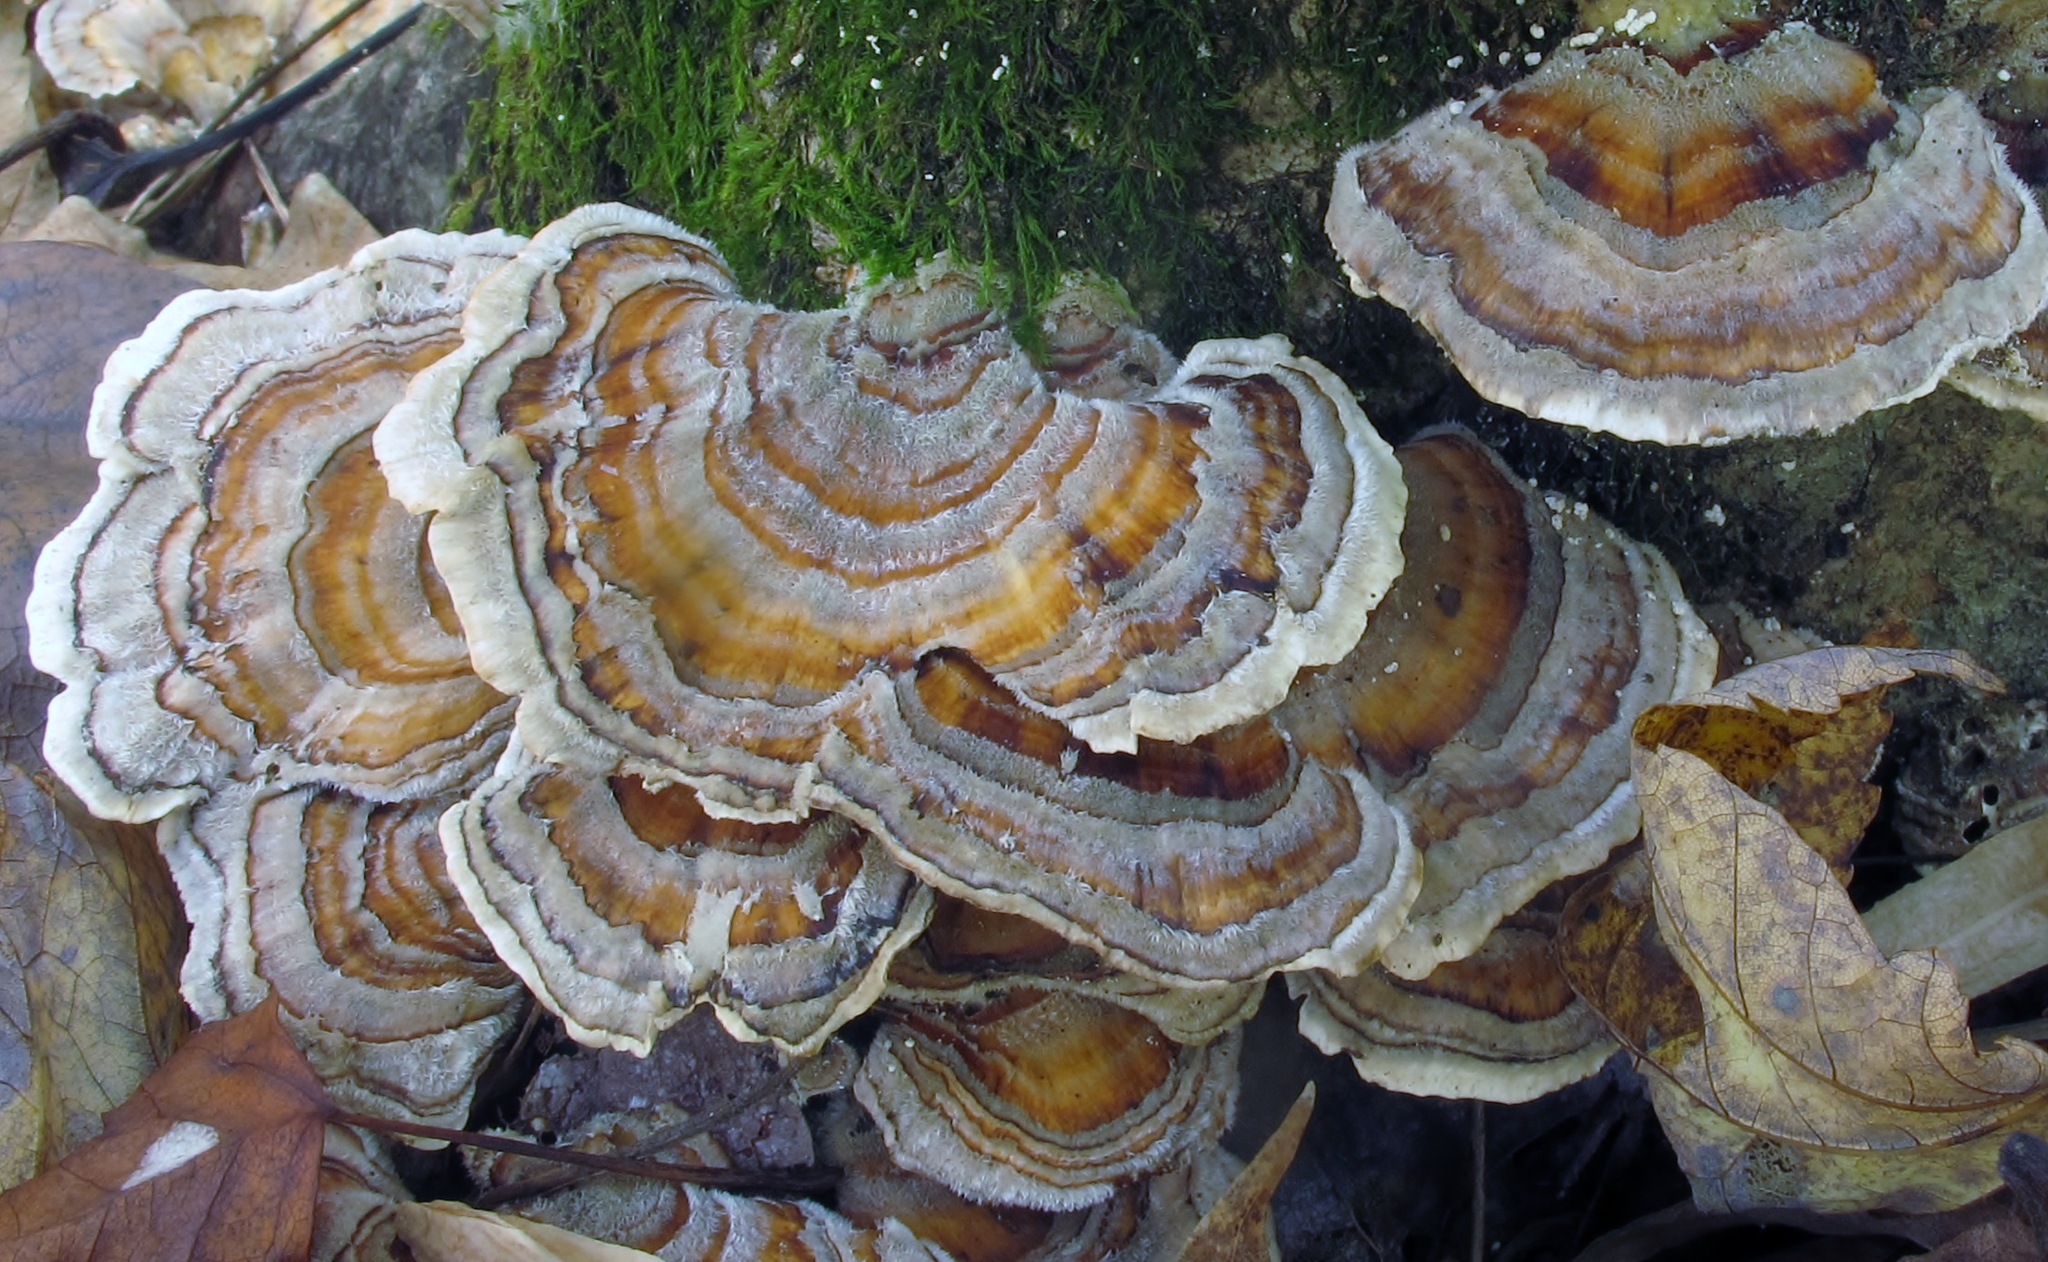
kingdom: Fungi
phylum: Basidiomycota
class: Agaricomycetes
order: Polyporales
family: Polyporaceae
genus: Trametes
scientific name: Trametes versicolor
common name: Turkeytail
